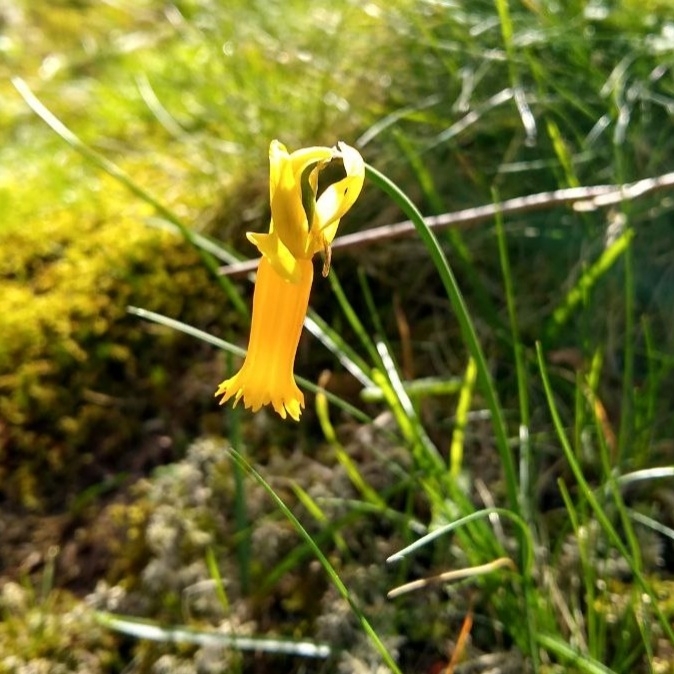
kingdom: Plantae
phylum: Tracheophyta
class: Liliopsida
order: Asparagales
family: Amaryllidaceae
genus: Narcissus
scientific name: Narcissus cyclamineus
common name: Cyclamen-flowered daffodil
